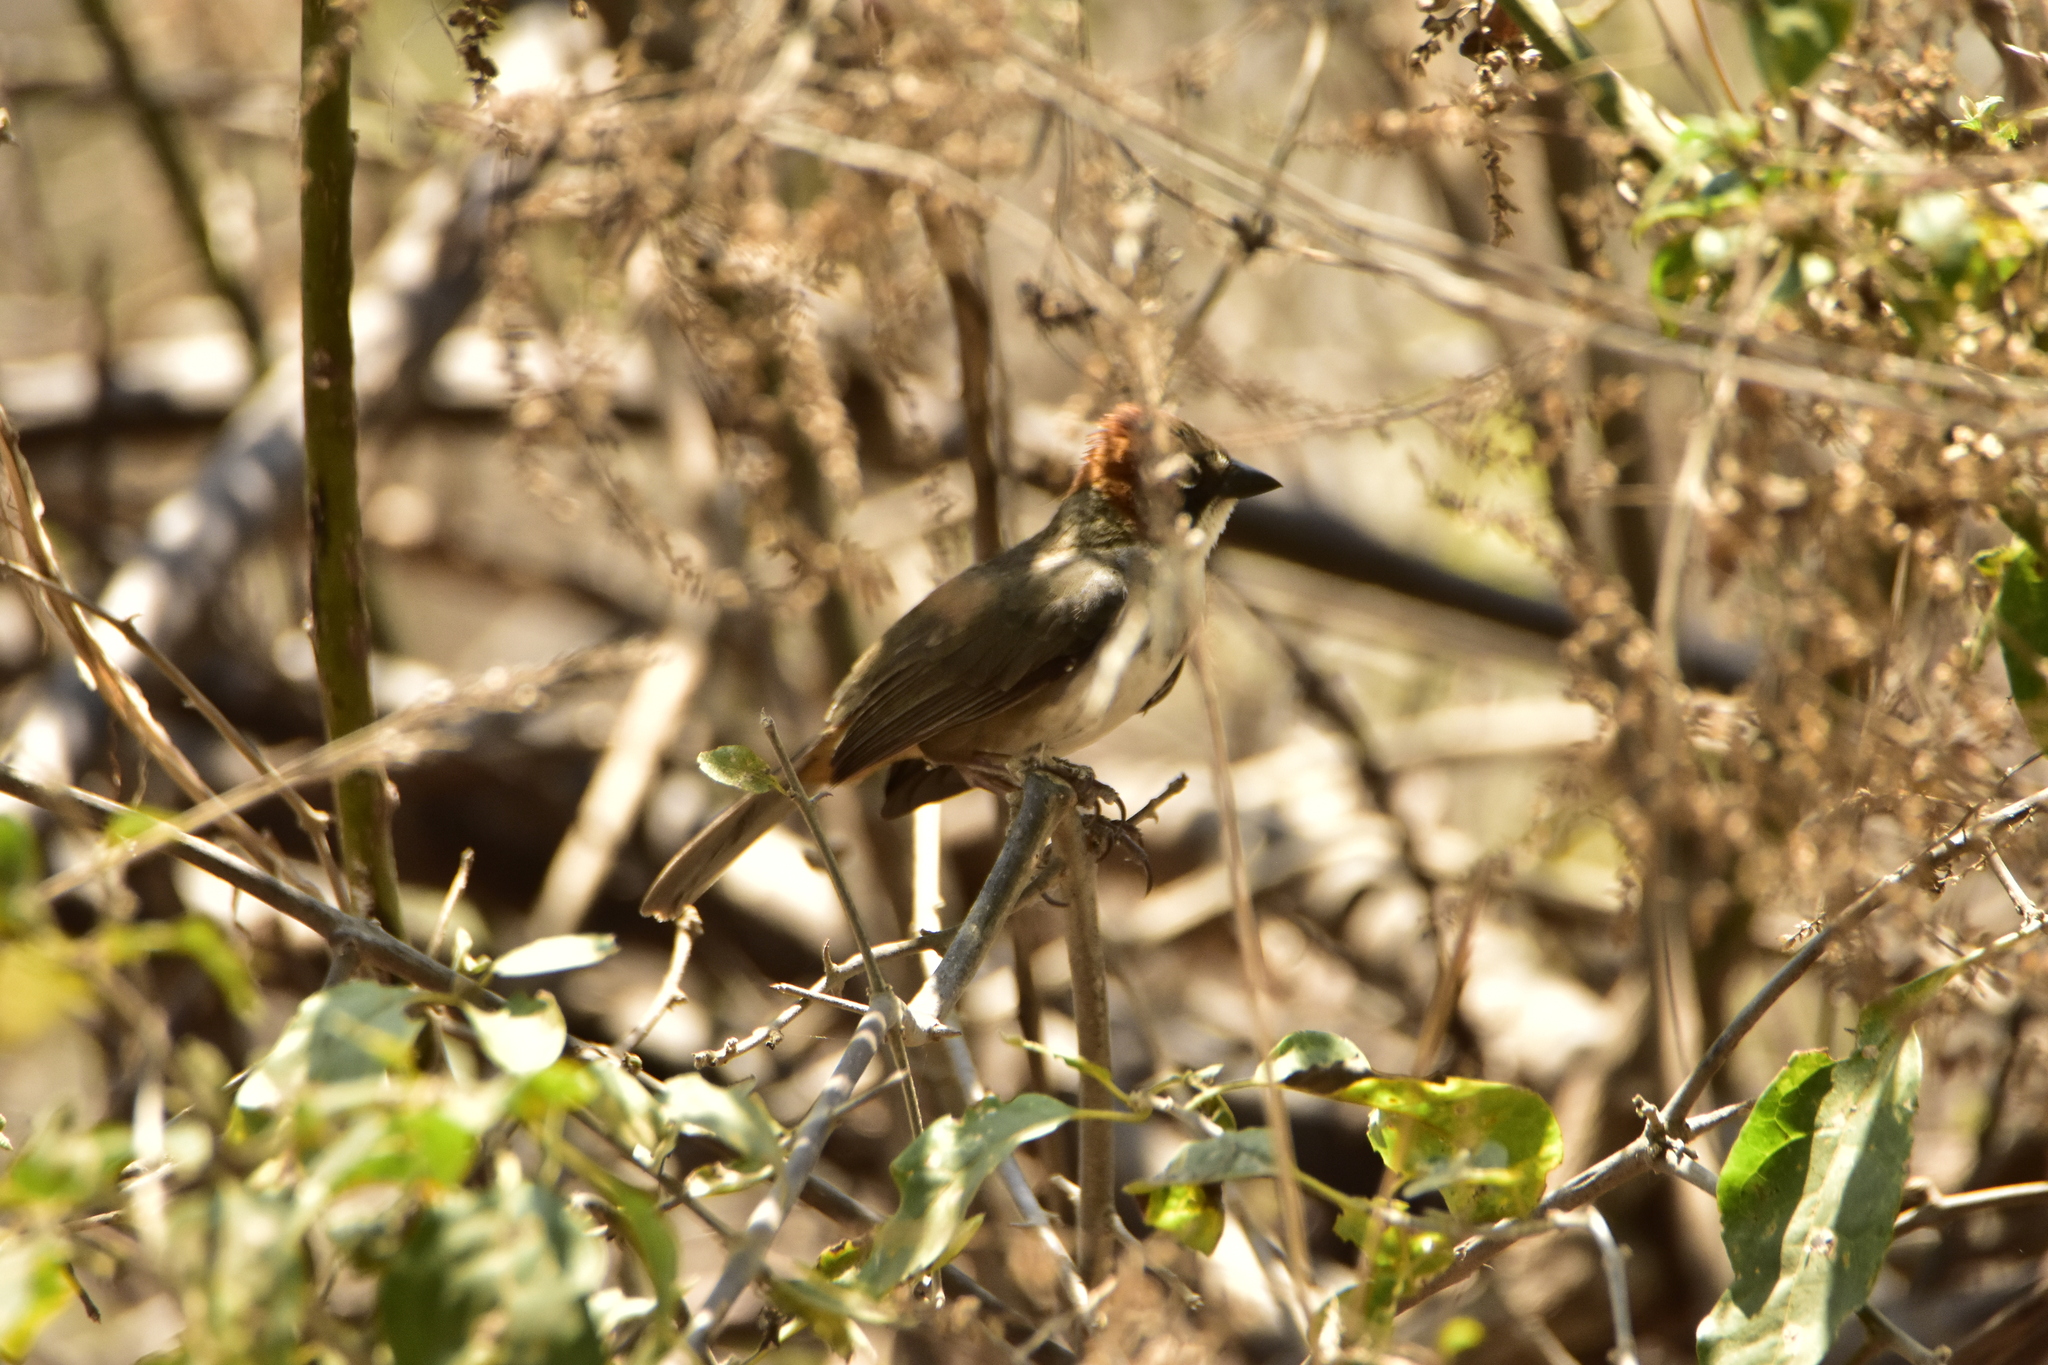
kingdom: Animalia
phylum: Chordata
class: Aves
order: Passeriformes
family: Passerellidae
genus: Melozone
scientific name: Melozone kieneri
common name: Rusty-crowned ground-sparrow
